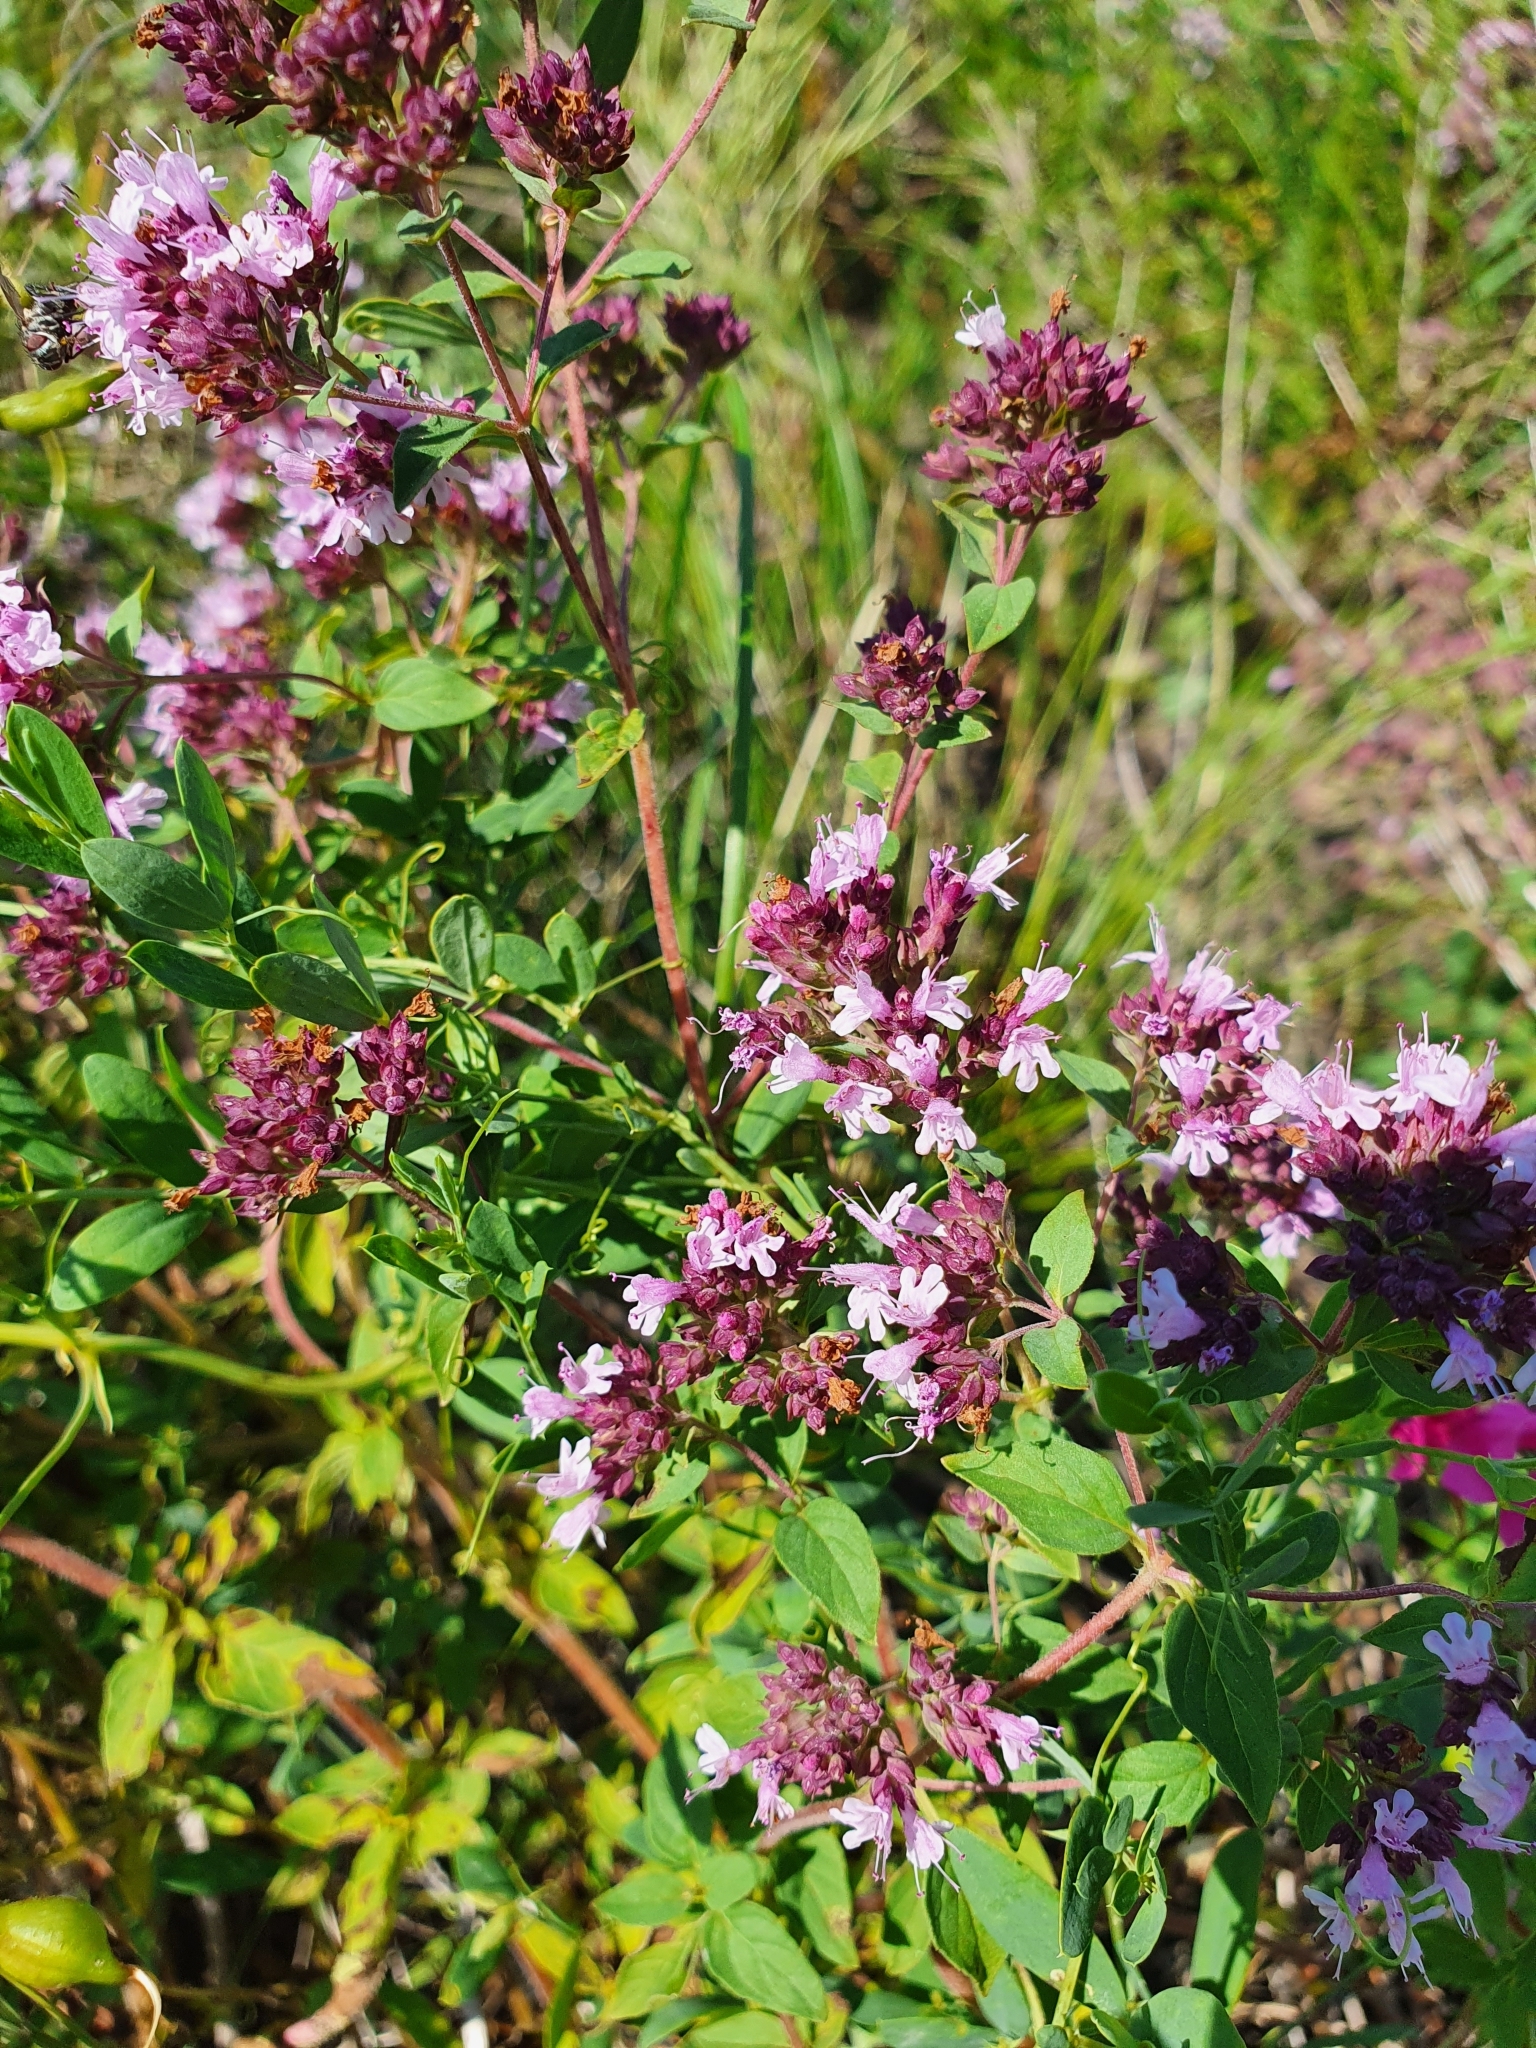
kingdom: Plantae
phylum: Tracheophyta
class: Magnoliopsida
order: Lamiales
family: Lamiaceae
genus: Origanum
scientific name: Origanum vulgare
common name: Wild marjoram
